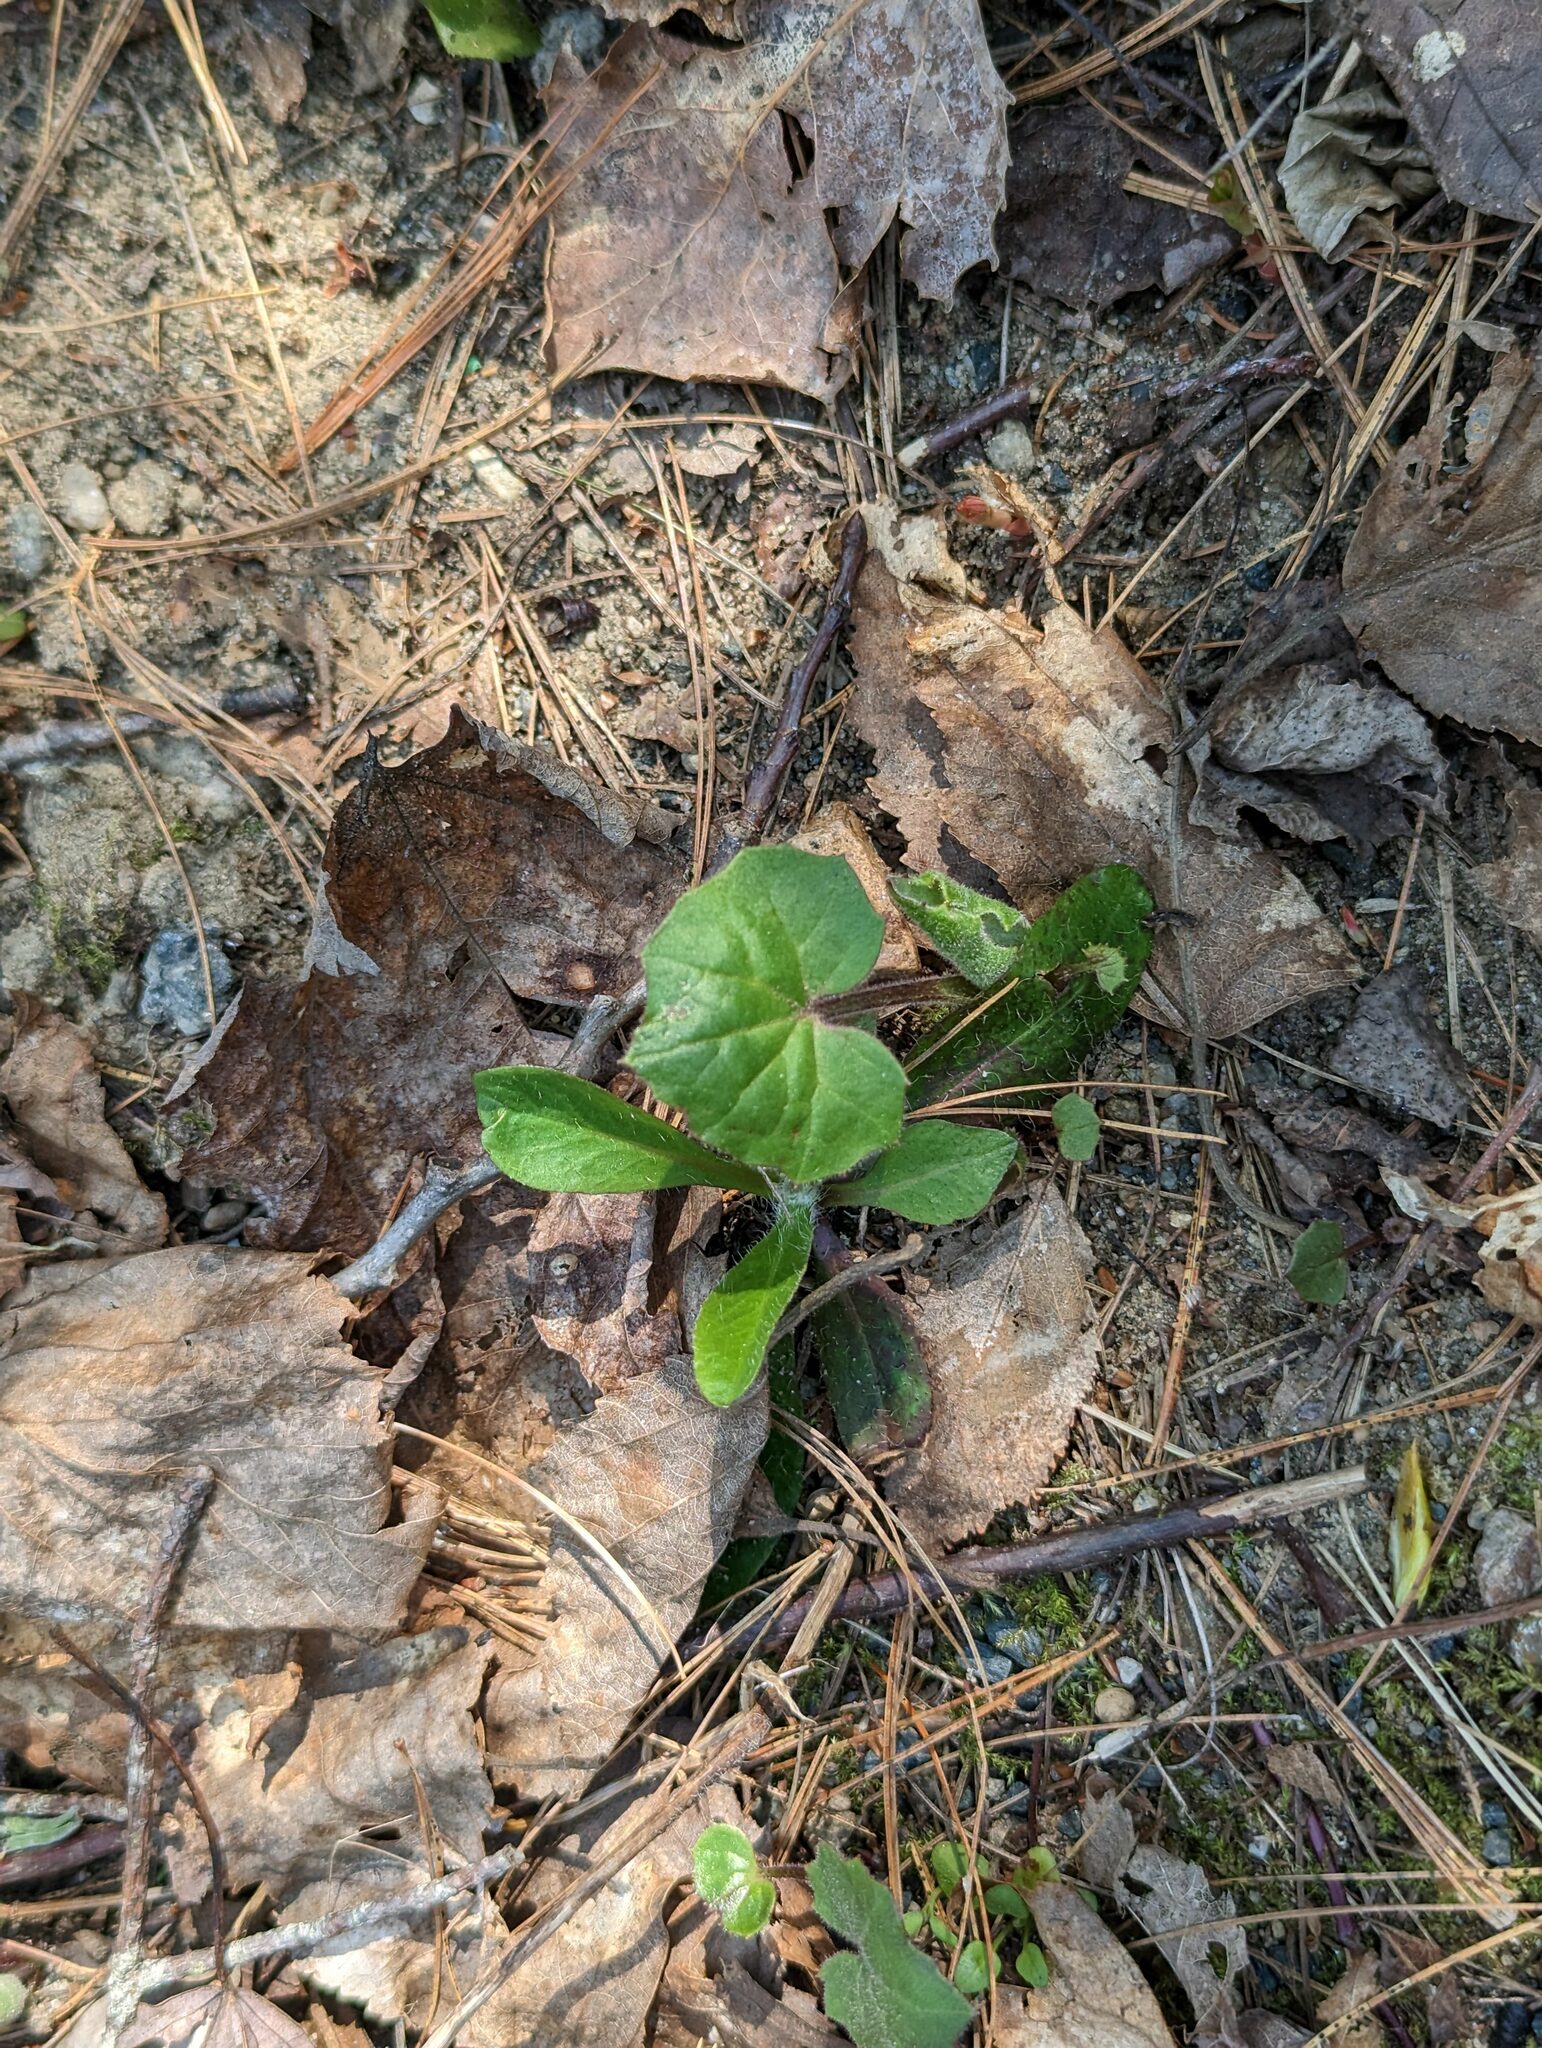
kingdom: Plantae
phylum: Tracheophyta
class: Magnoliopsida
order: Asterales
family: Asteraceae
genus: Tussilago
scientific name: Tussilago farfara
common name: Coltsfoot
